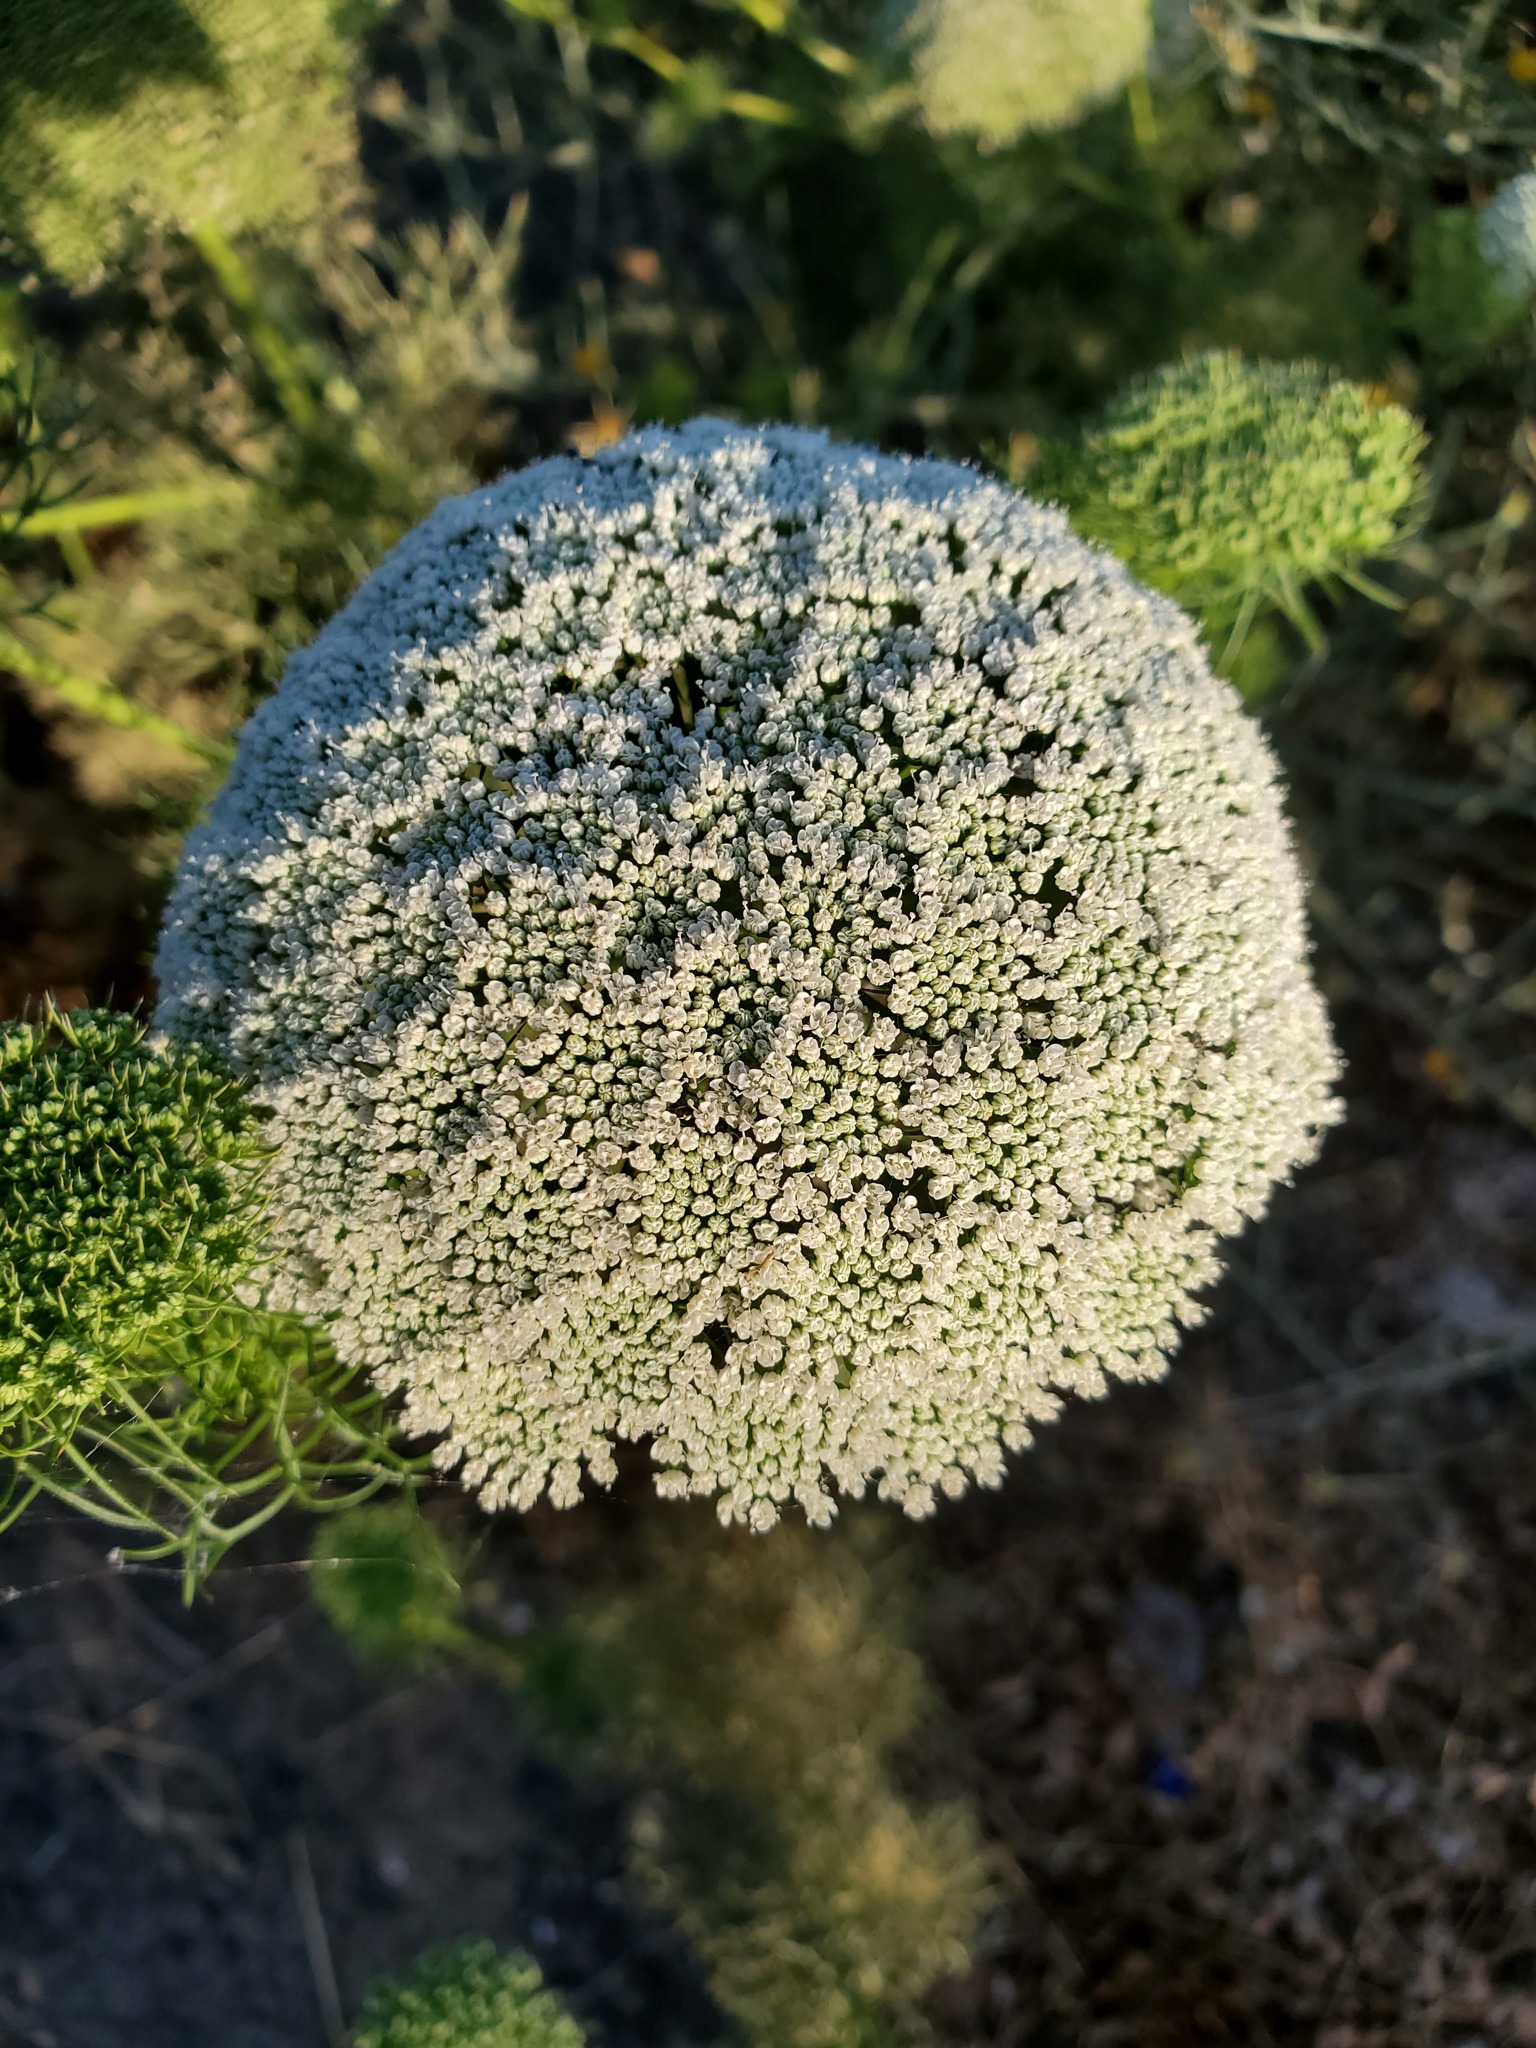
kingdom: Plantae
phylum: Tracheophyta
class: Magnoliopsida
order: Apiales
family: Apiaceae
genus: Visnaga
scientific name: Visnaga daucoides
